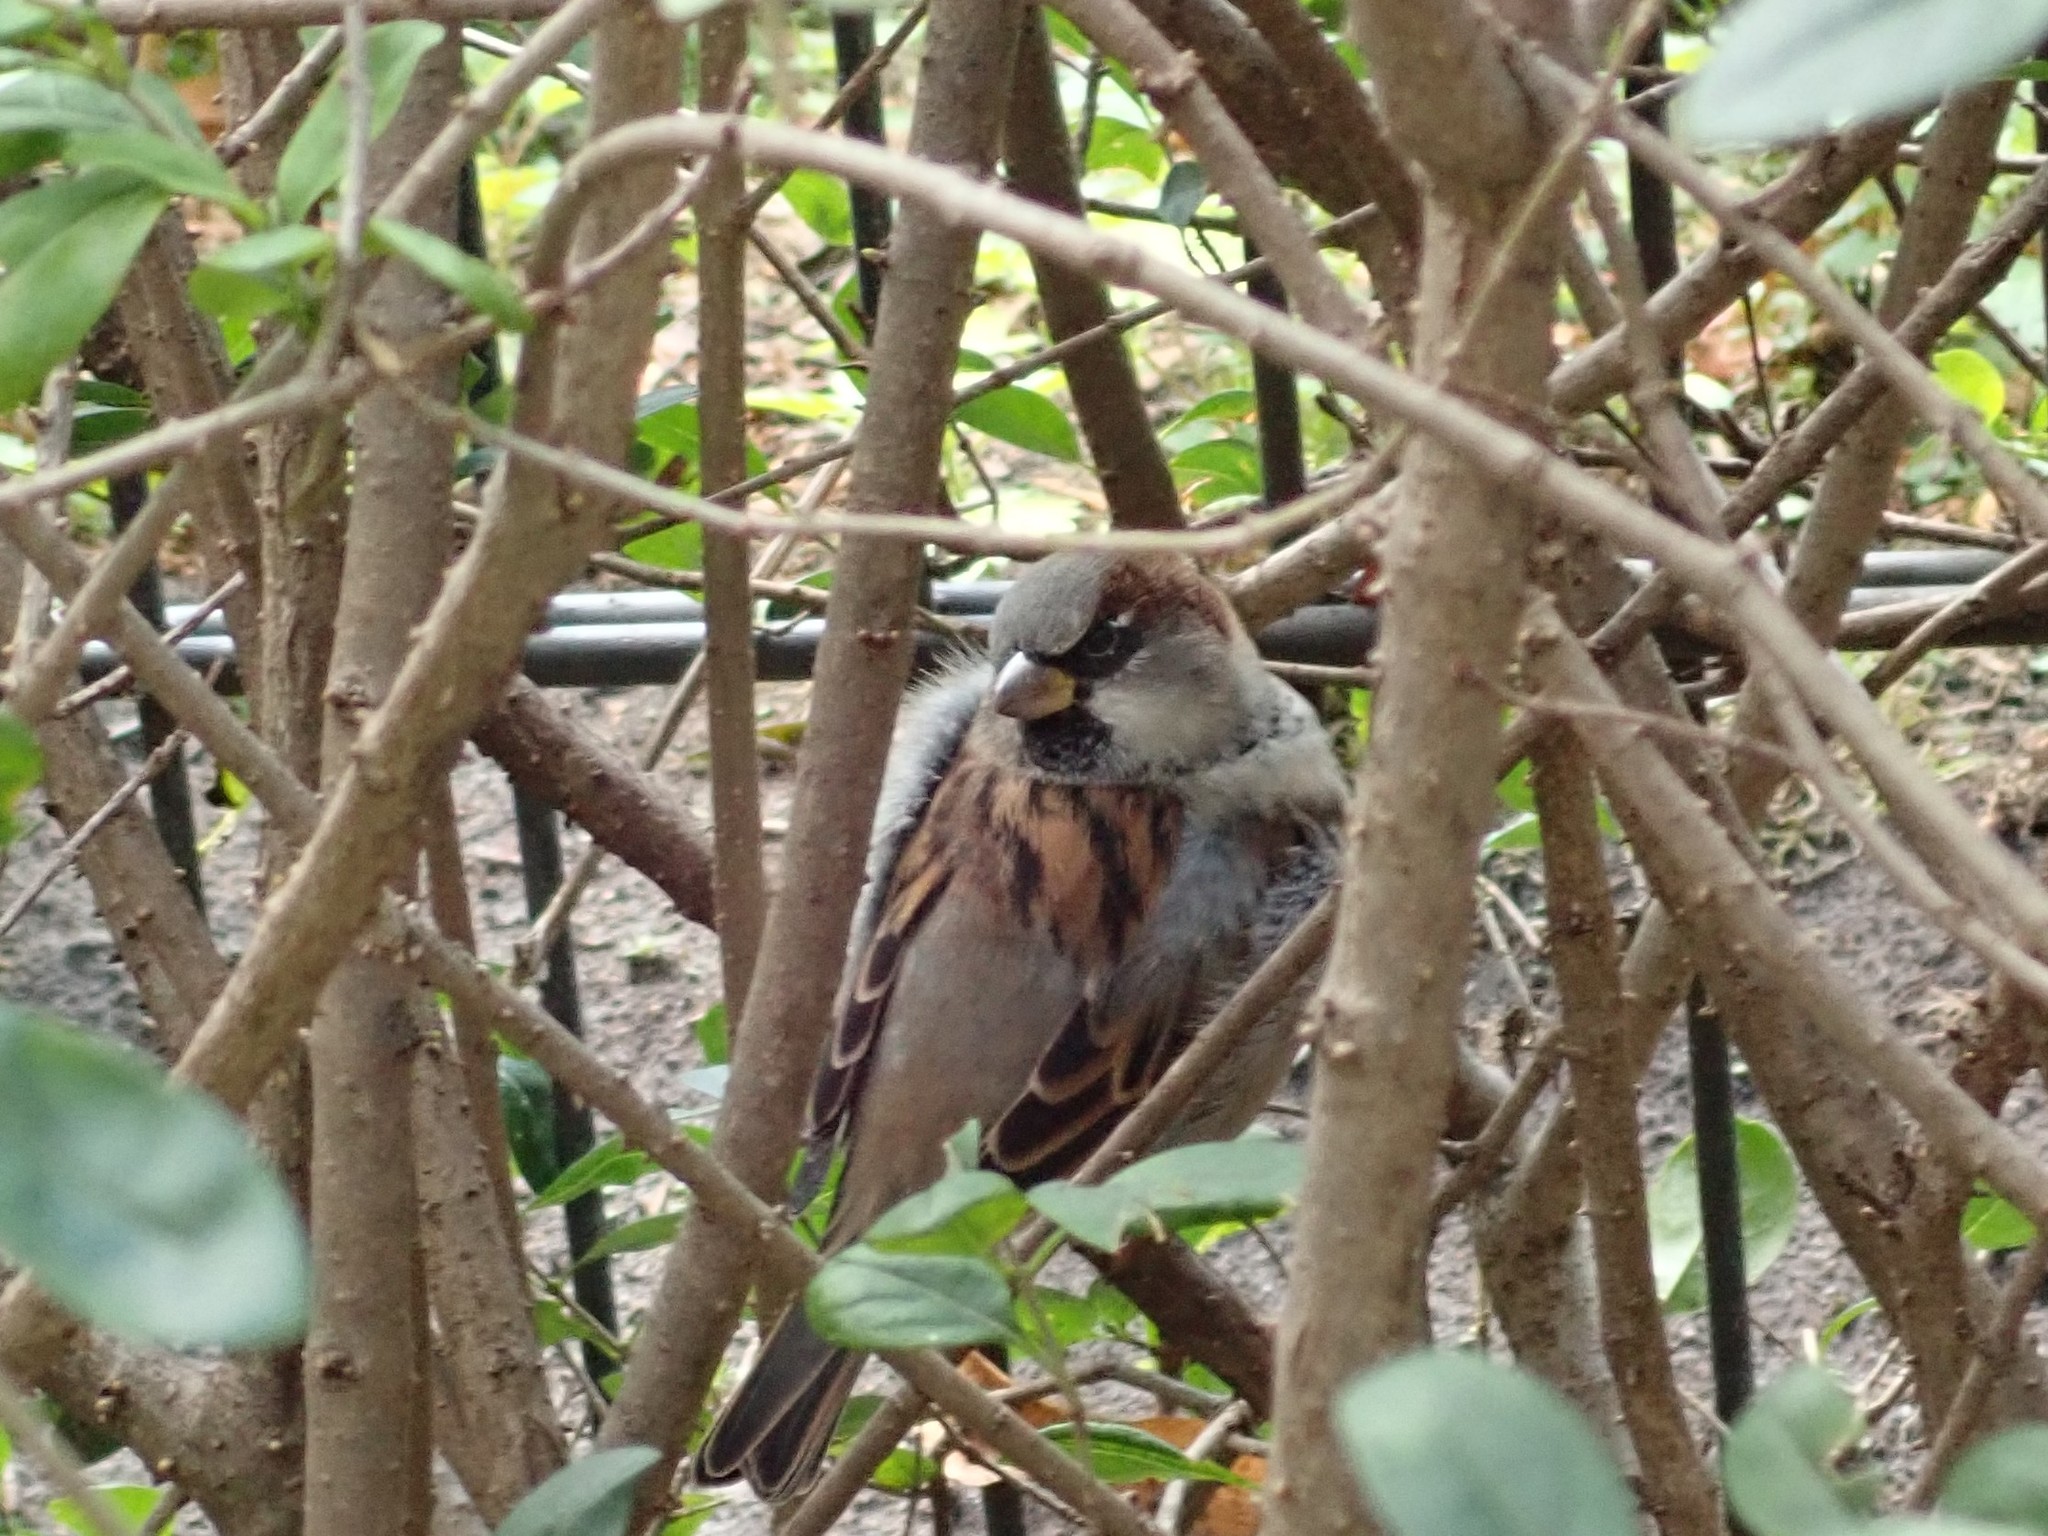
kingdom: Animalia
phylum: Chordata
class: Aves
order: Passeriformes
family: Passeridae
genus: Passer
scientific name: Passer domesticus
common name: House sparrow
